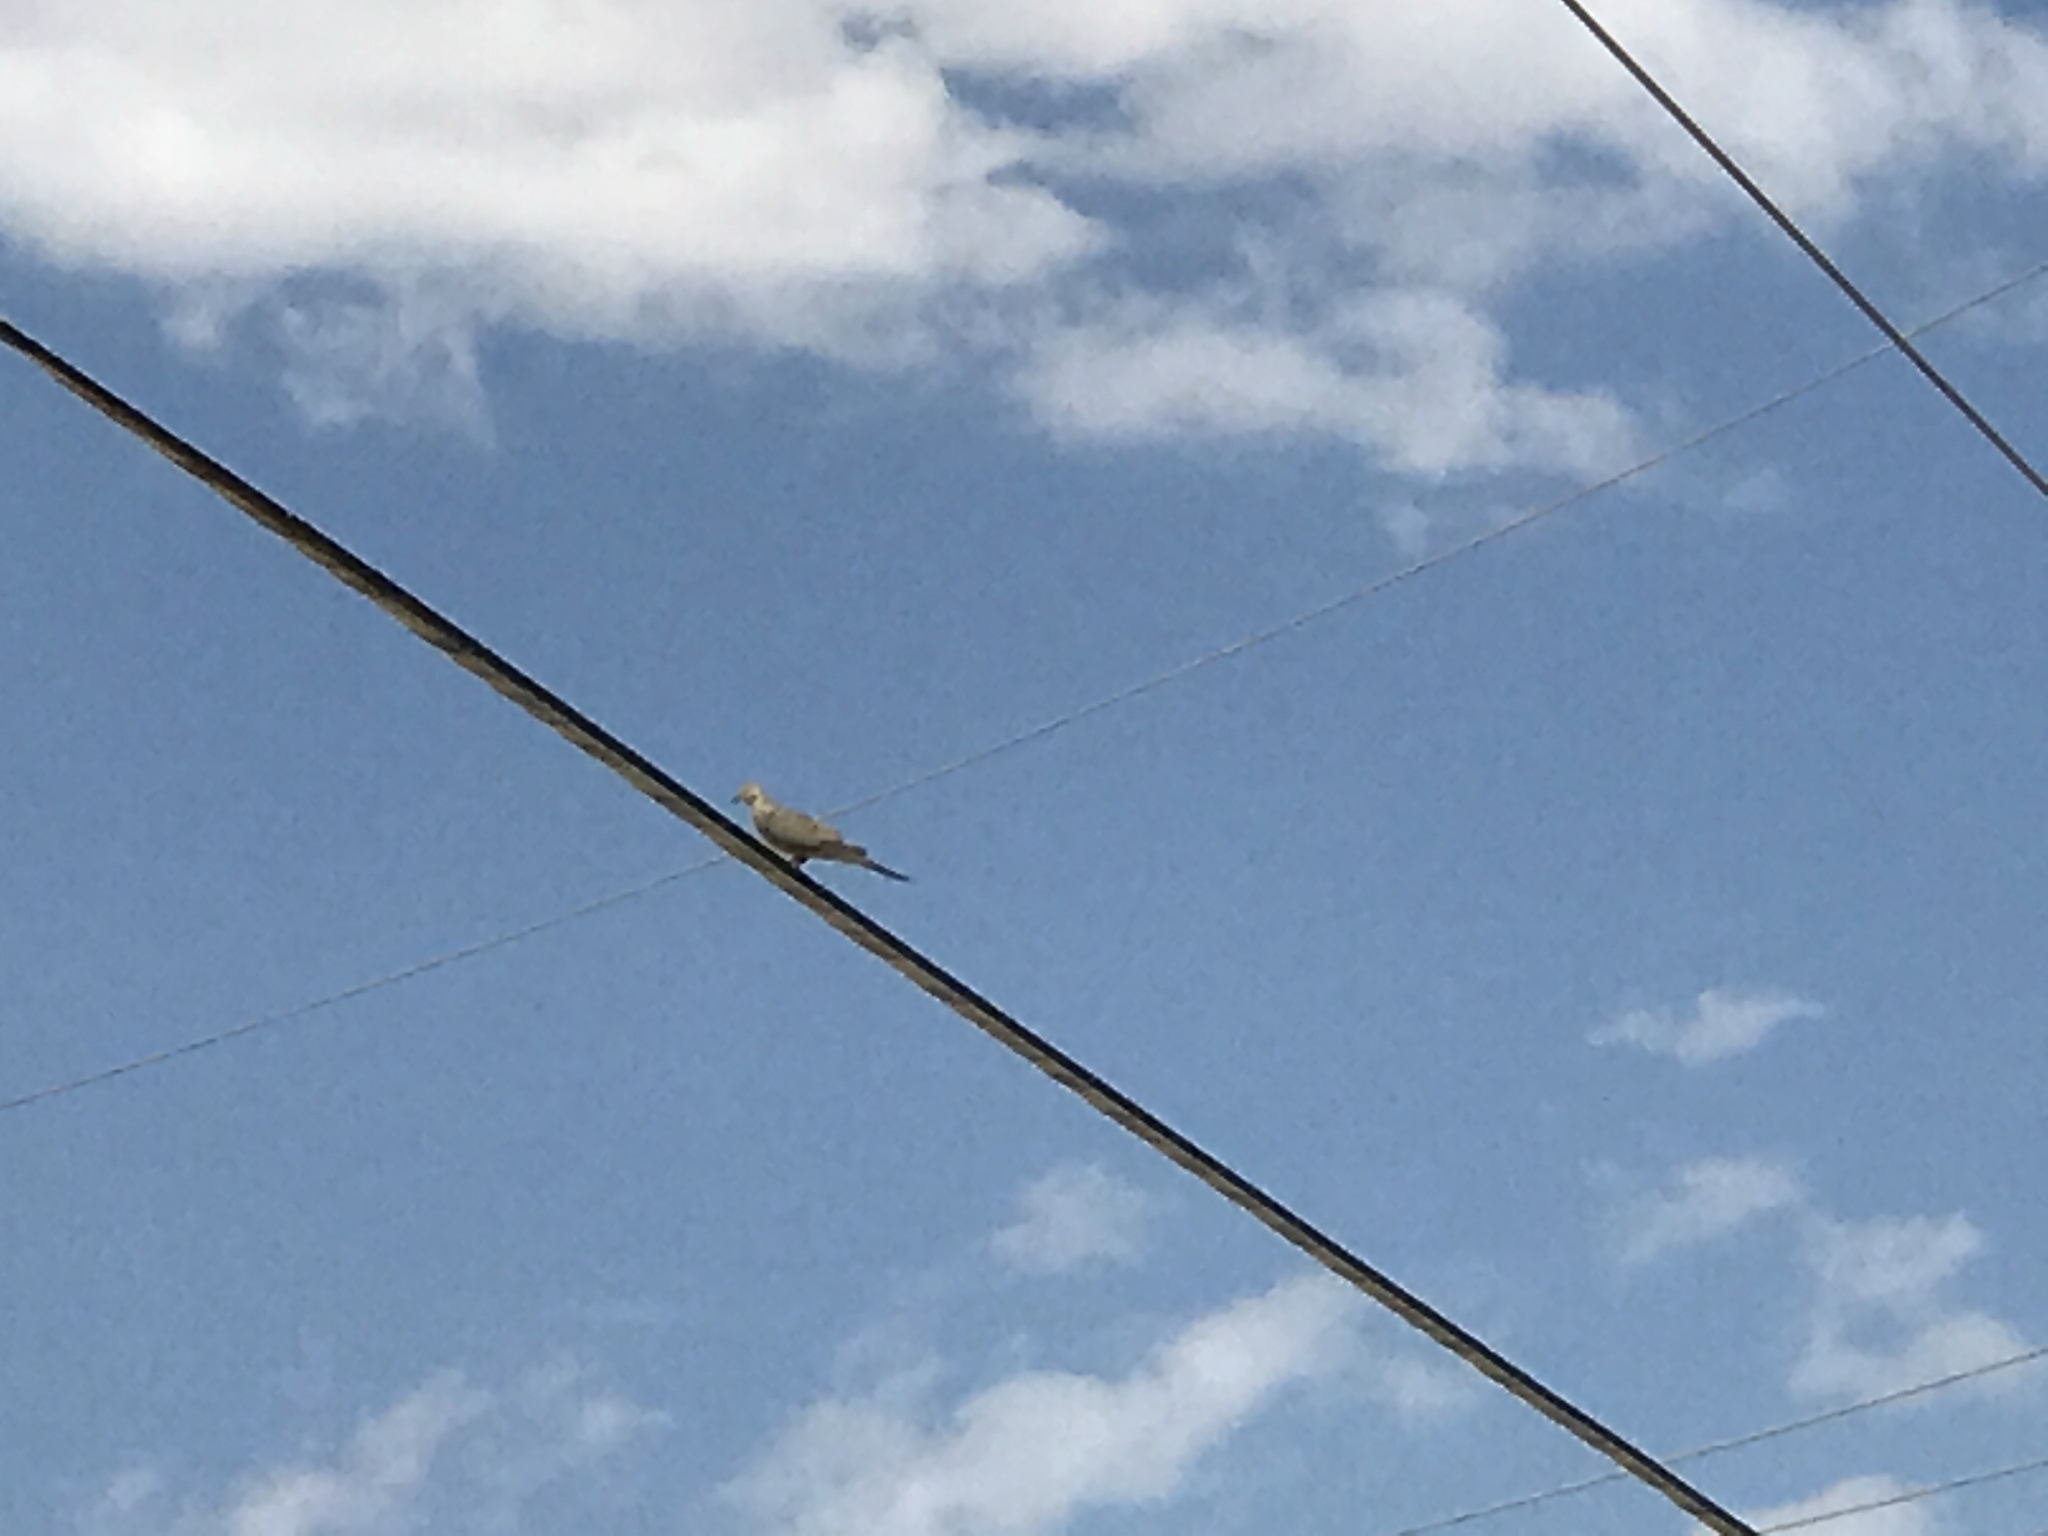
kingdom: Animalia
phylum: Chordata
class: Aves
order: Columbiformes
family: Columbidae
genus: Zenaida
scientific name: Zenaida macroura
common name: Mourning dove
